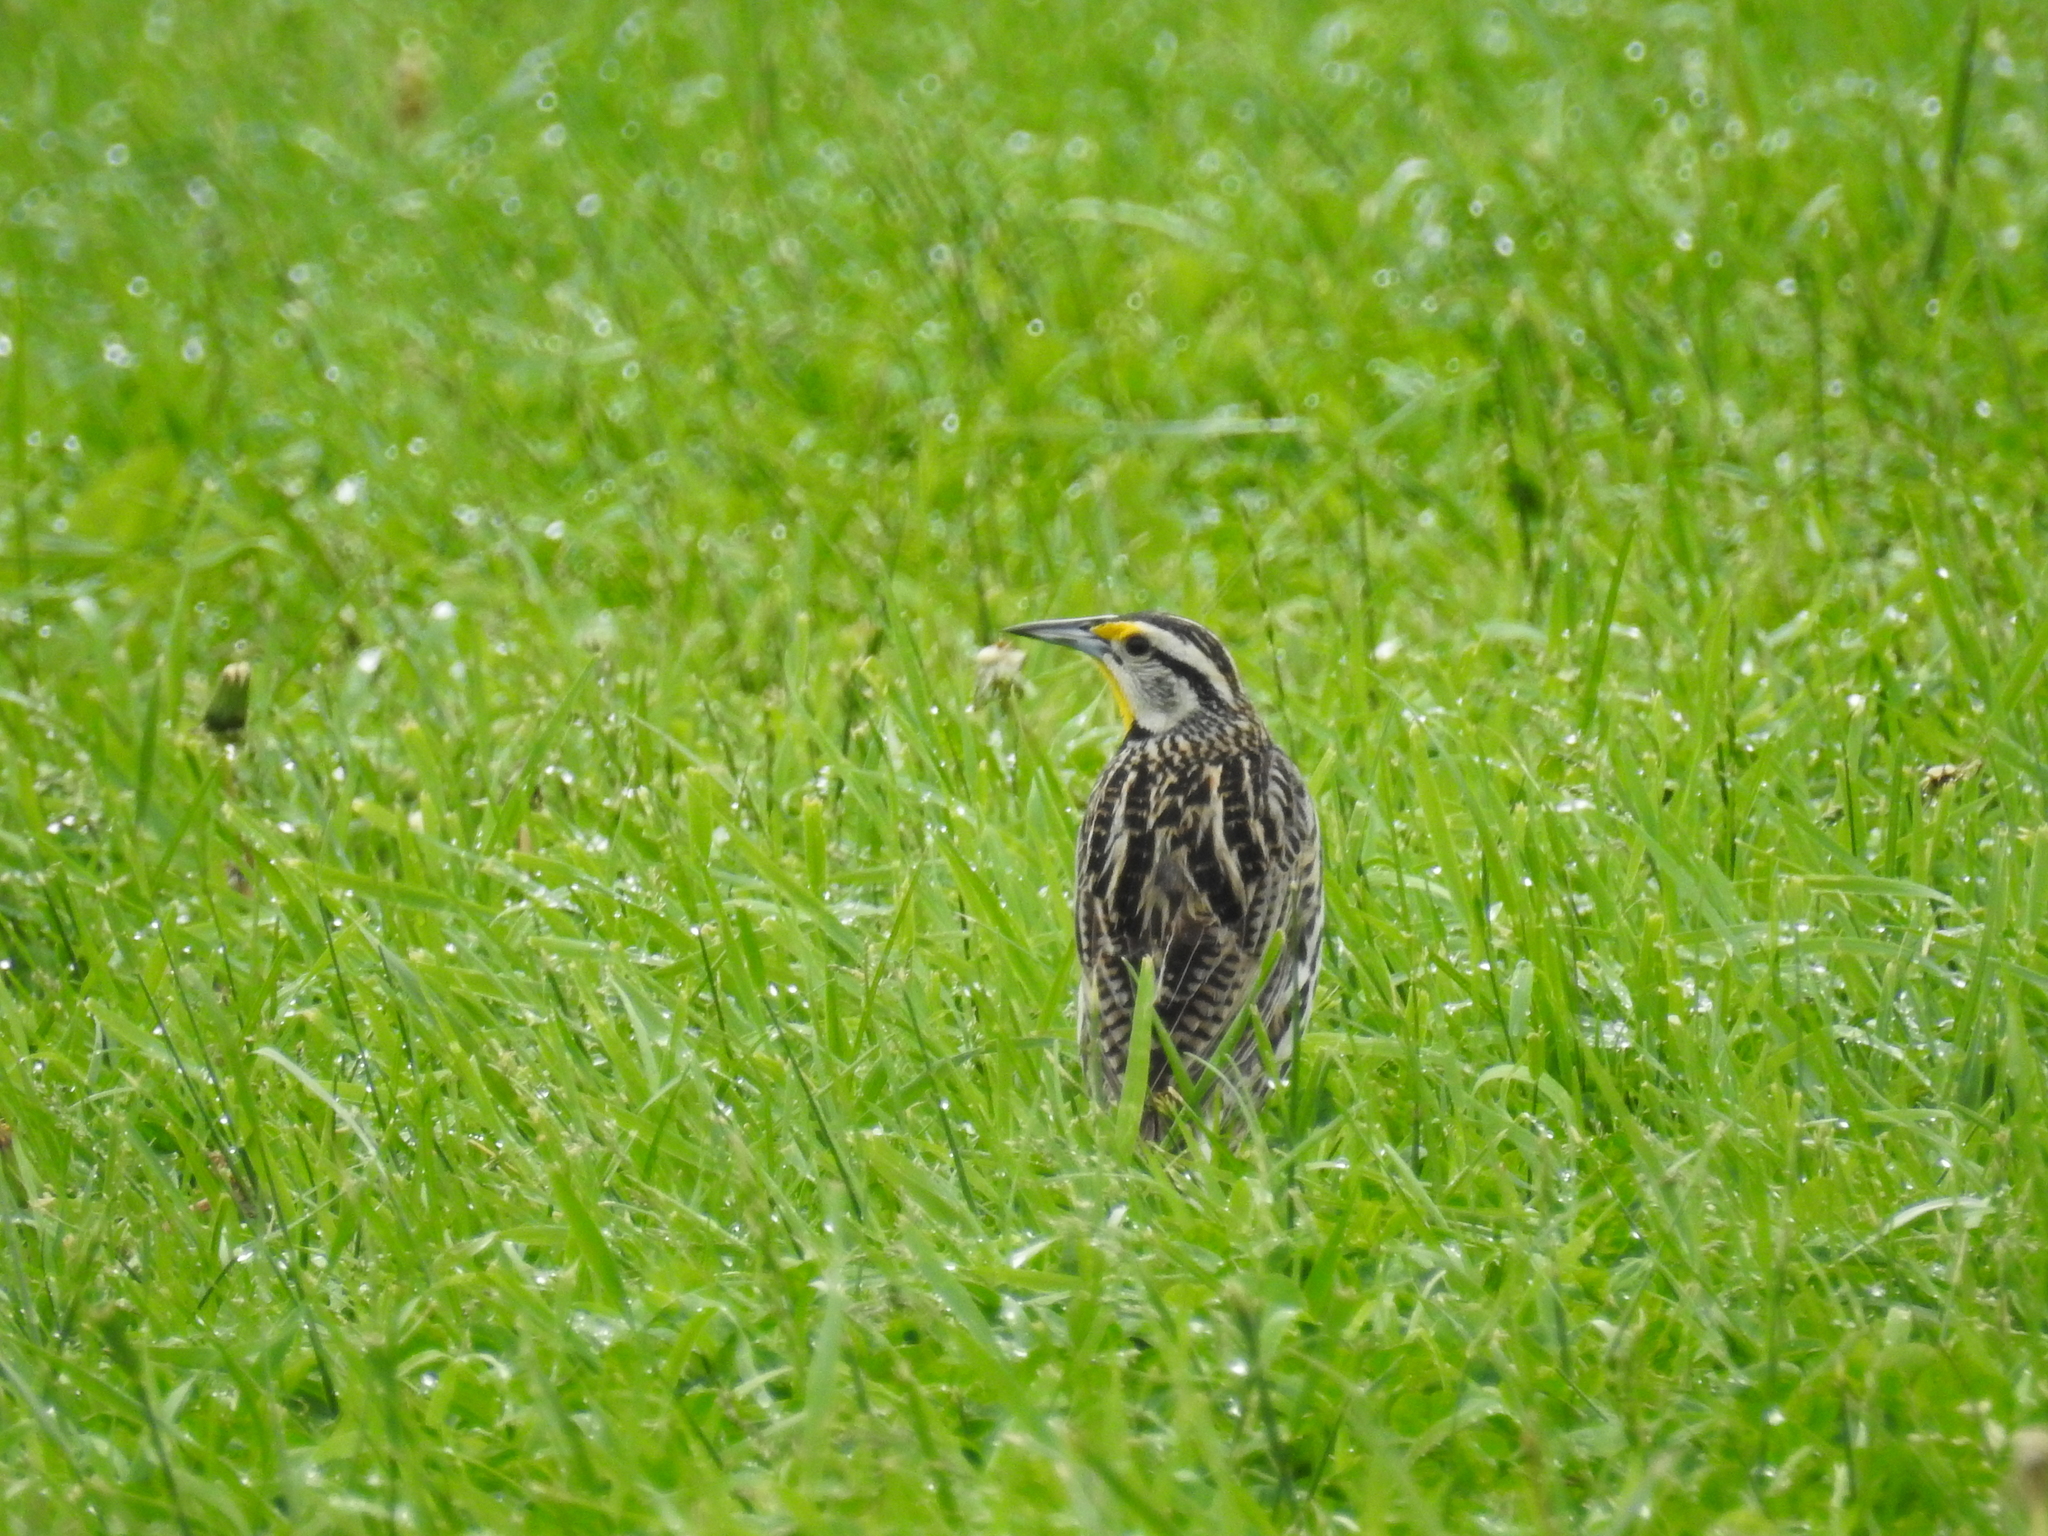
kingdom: Animalia
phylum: Chordata
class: Aves
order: Passeriformes
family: Icteridae
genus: Sturnella
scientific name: Sturnella magna
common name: Eastern meadowlark
